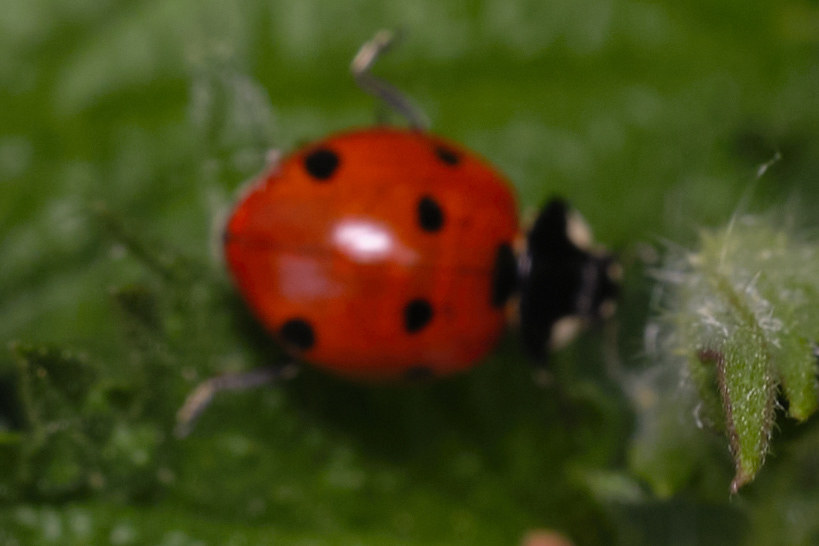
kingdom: Animalia
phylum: Arthropoda
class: Insecta
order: Coleoptera
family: Coccinellidae
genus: Coccinella
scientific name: Coccinella septempunctata
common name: Sevenspotted lady beetle
